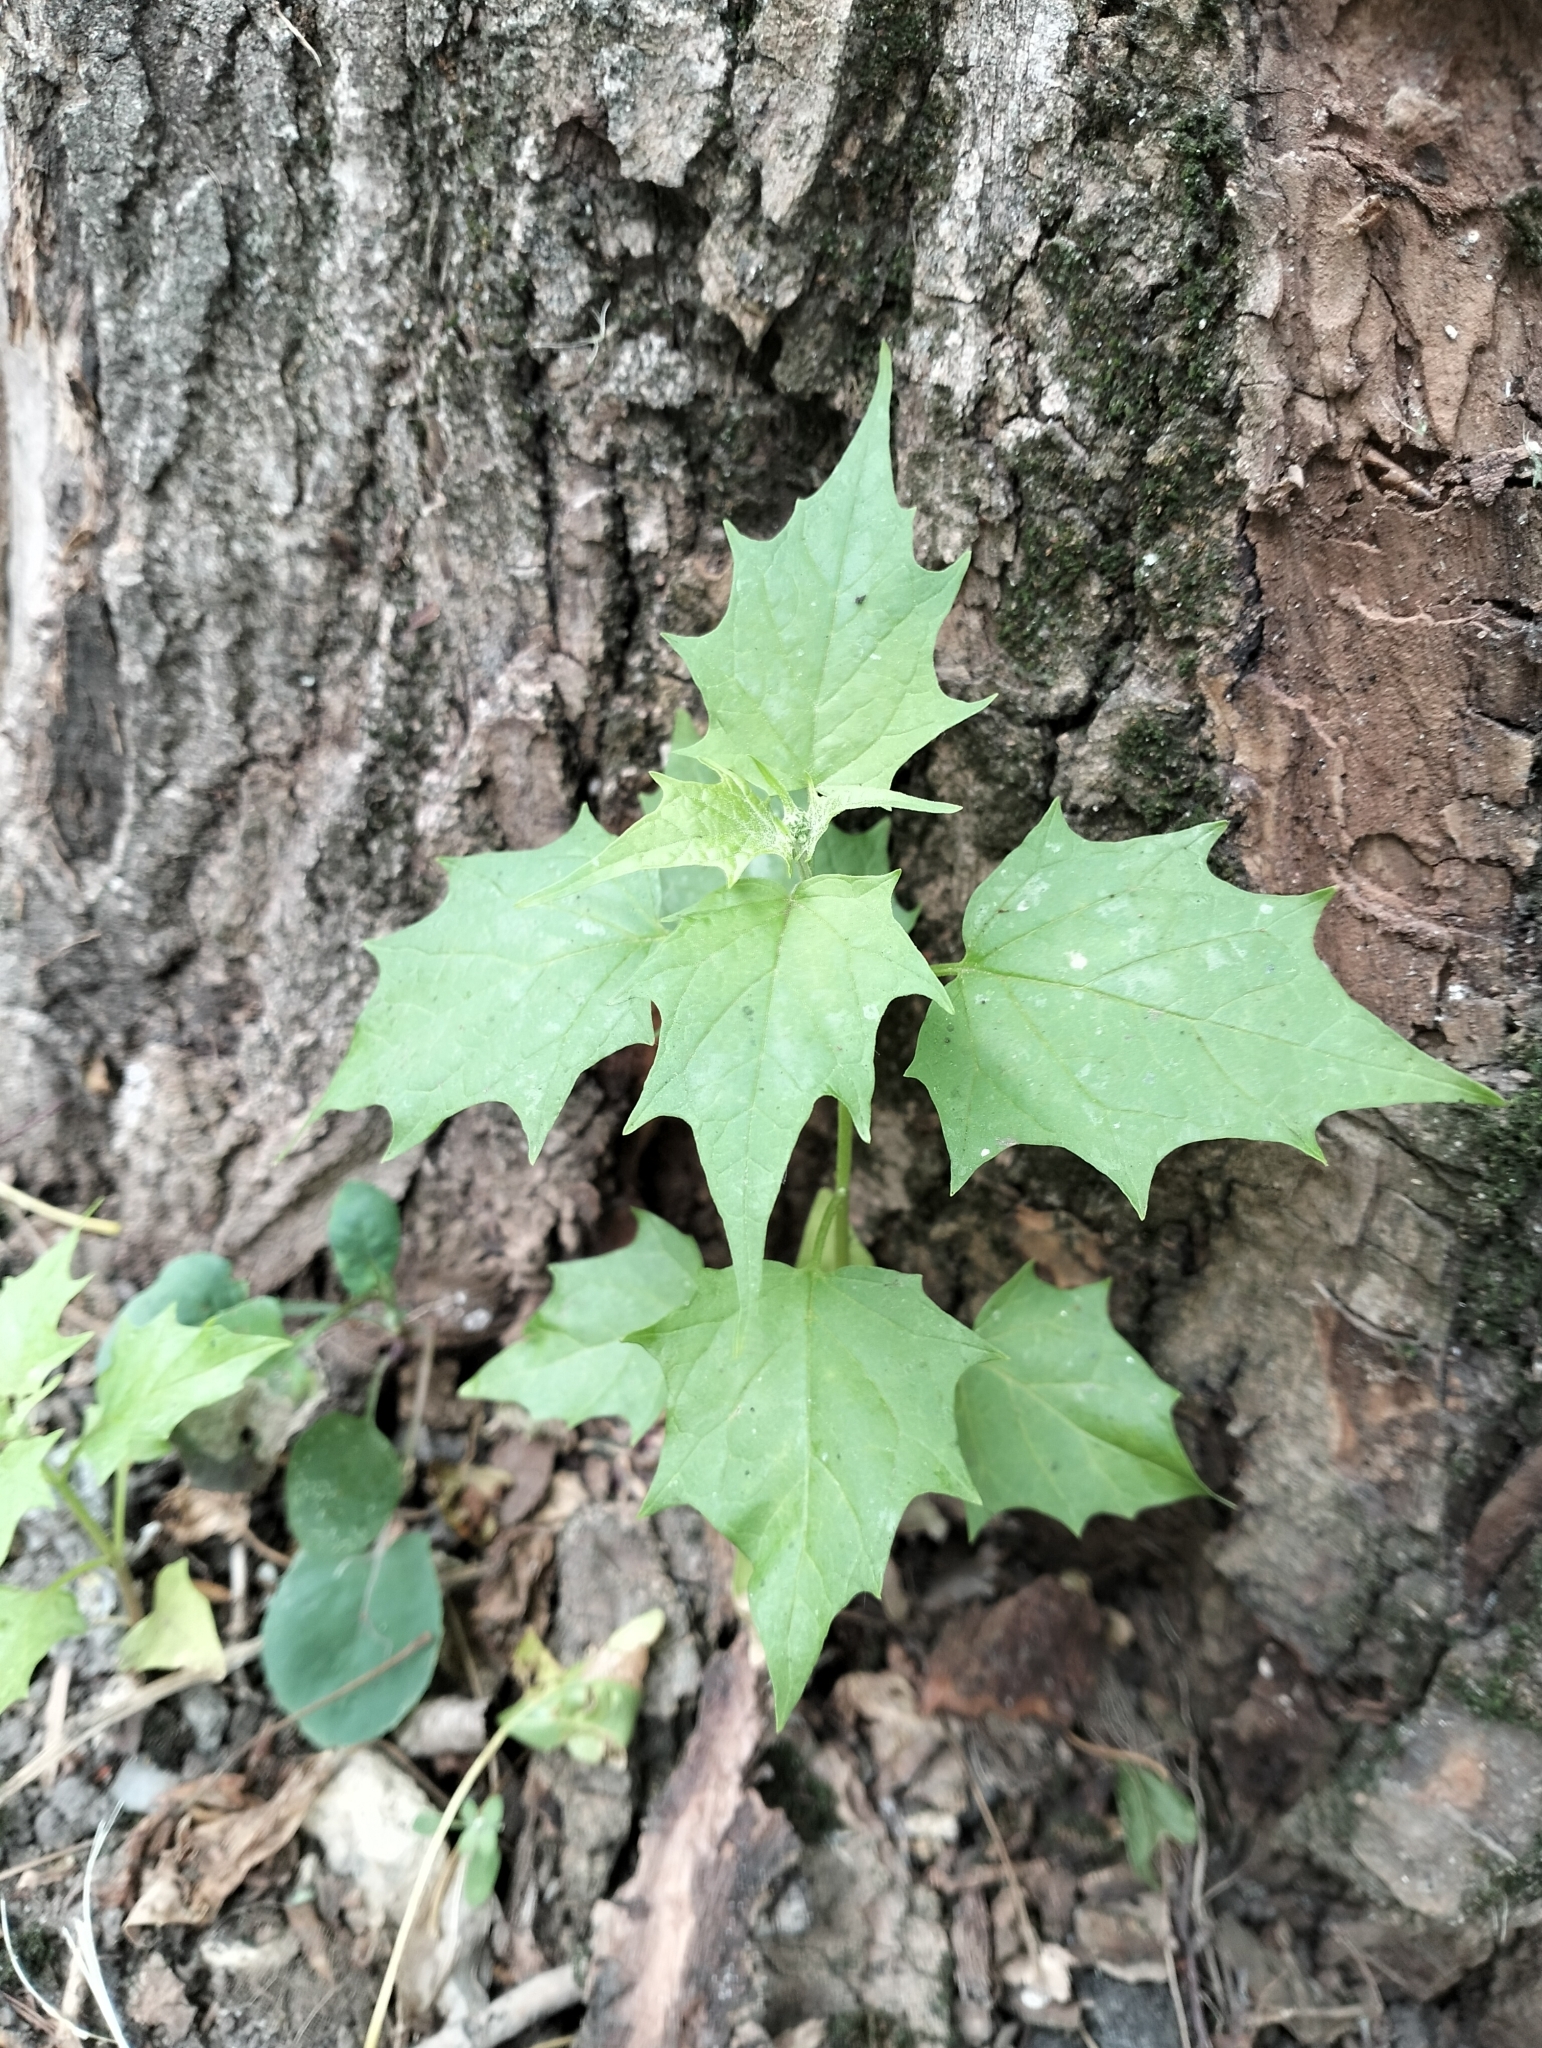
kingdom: Plantae
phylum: Tracheophyta
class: Magnoliopsida
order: Caryophyllales
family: Amaranthaceae
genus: Chenopodiastrum
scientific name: Chenopodiastrum hybridum
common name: Mapleleaf goosefoot
